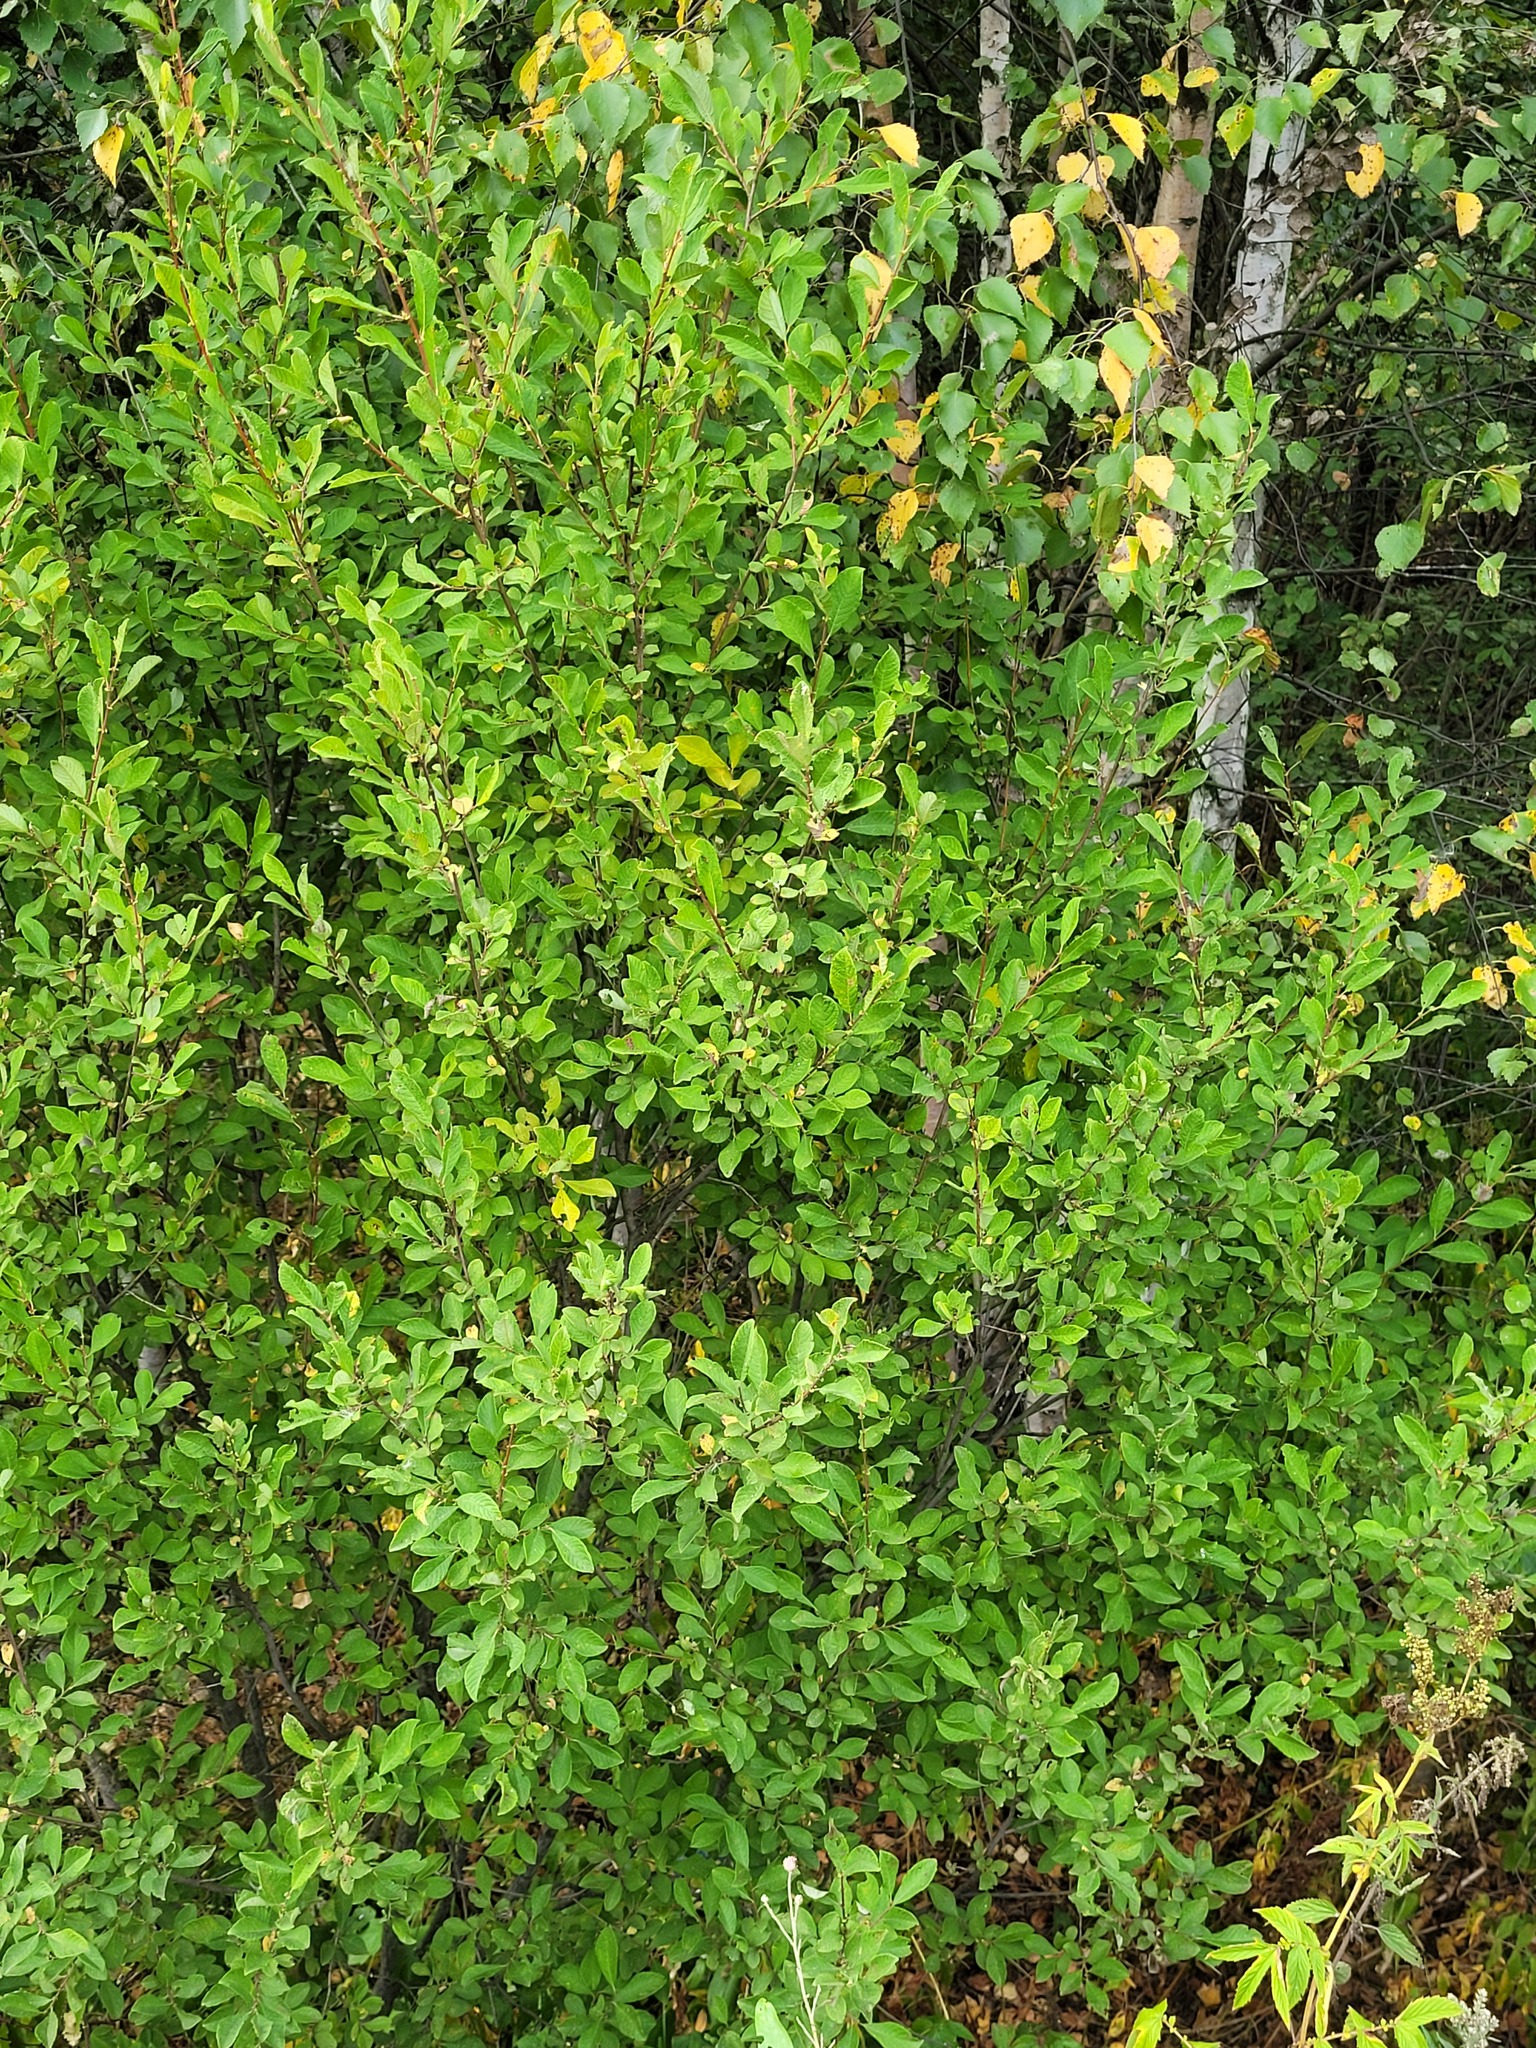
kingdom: Plantae
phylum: Tracheophyta
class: Magnoliopsida
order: Malpighiales
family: Salicaceae
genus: Salix
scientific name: Salix aurita
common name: Eared willow
